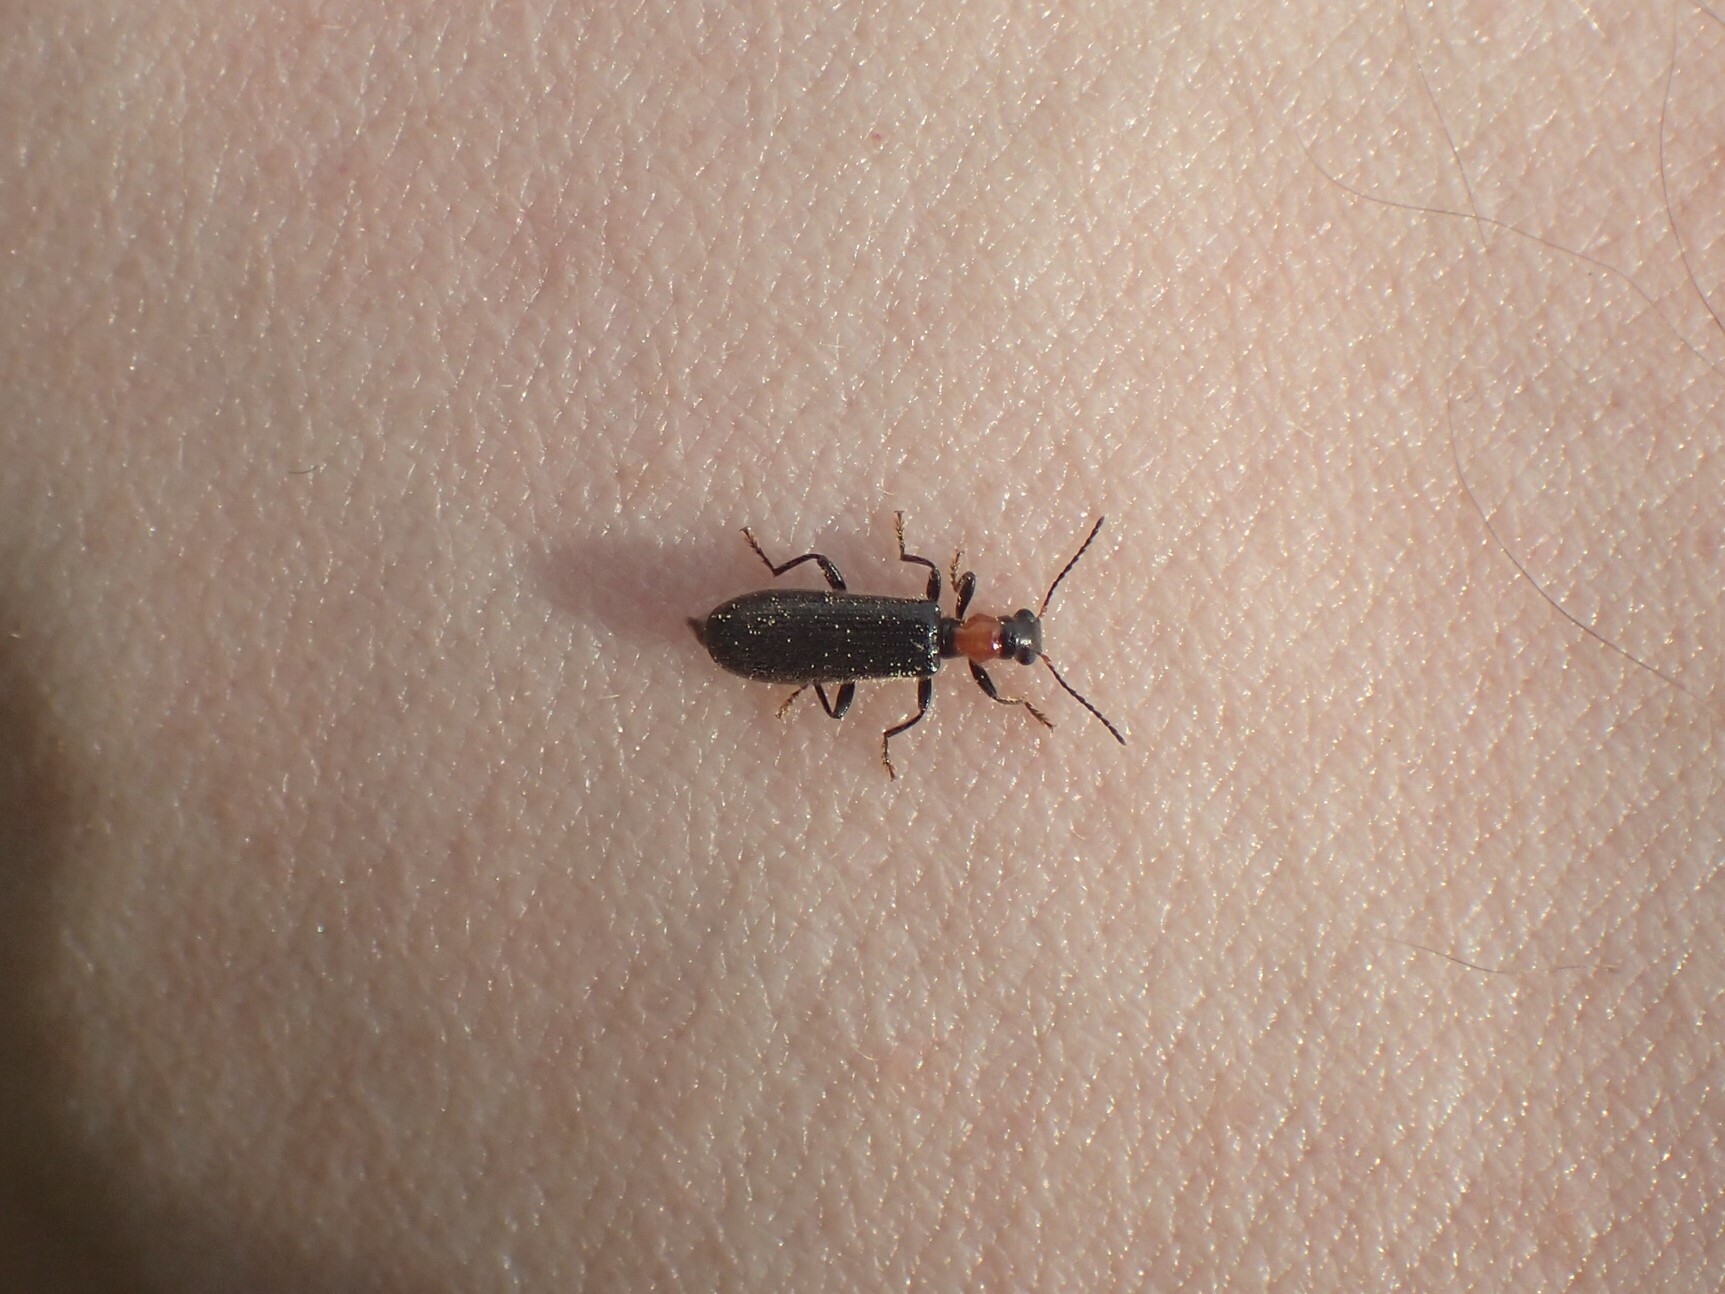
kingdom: Animalia
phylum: Arthropoda
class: Insecta
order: Coleoptera
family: Cleridae
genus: Cymatodera
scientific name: Cymatodera bicolor
